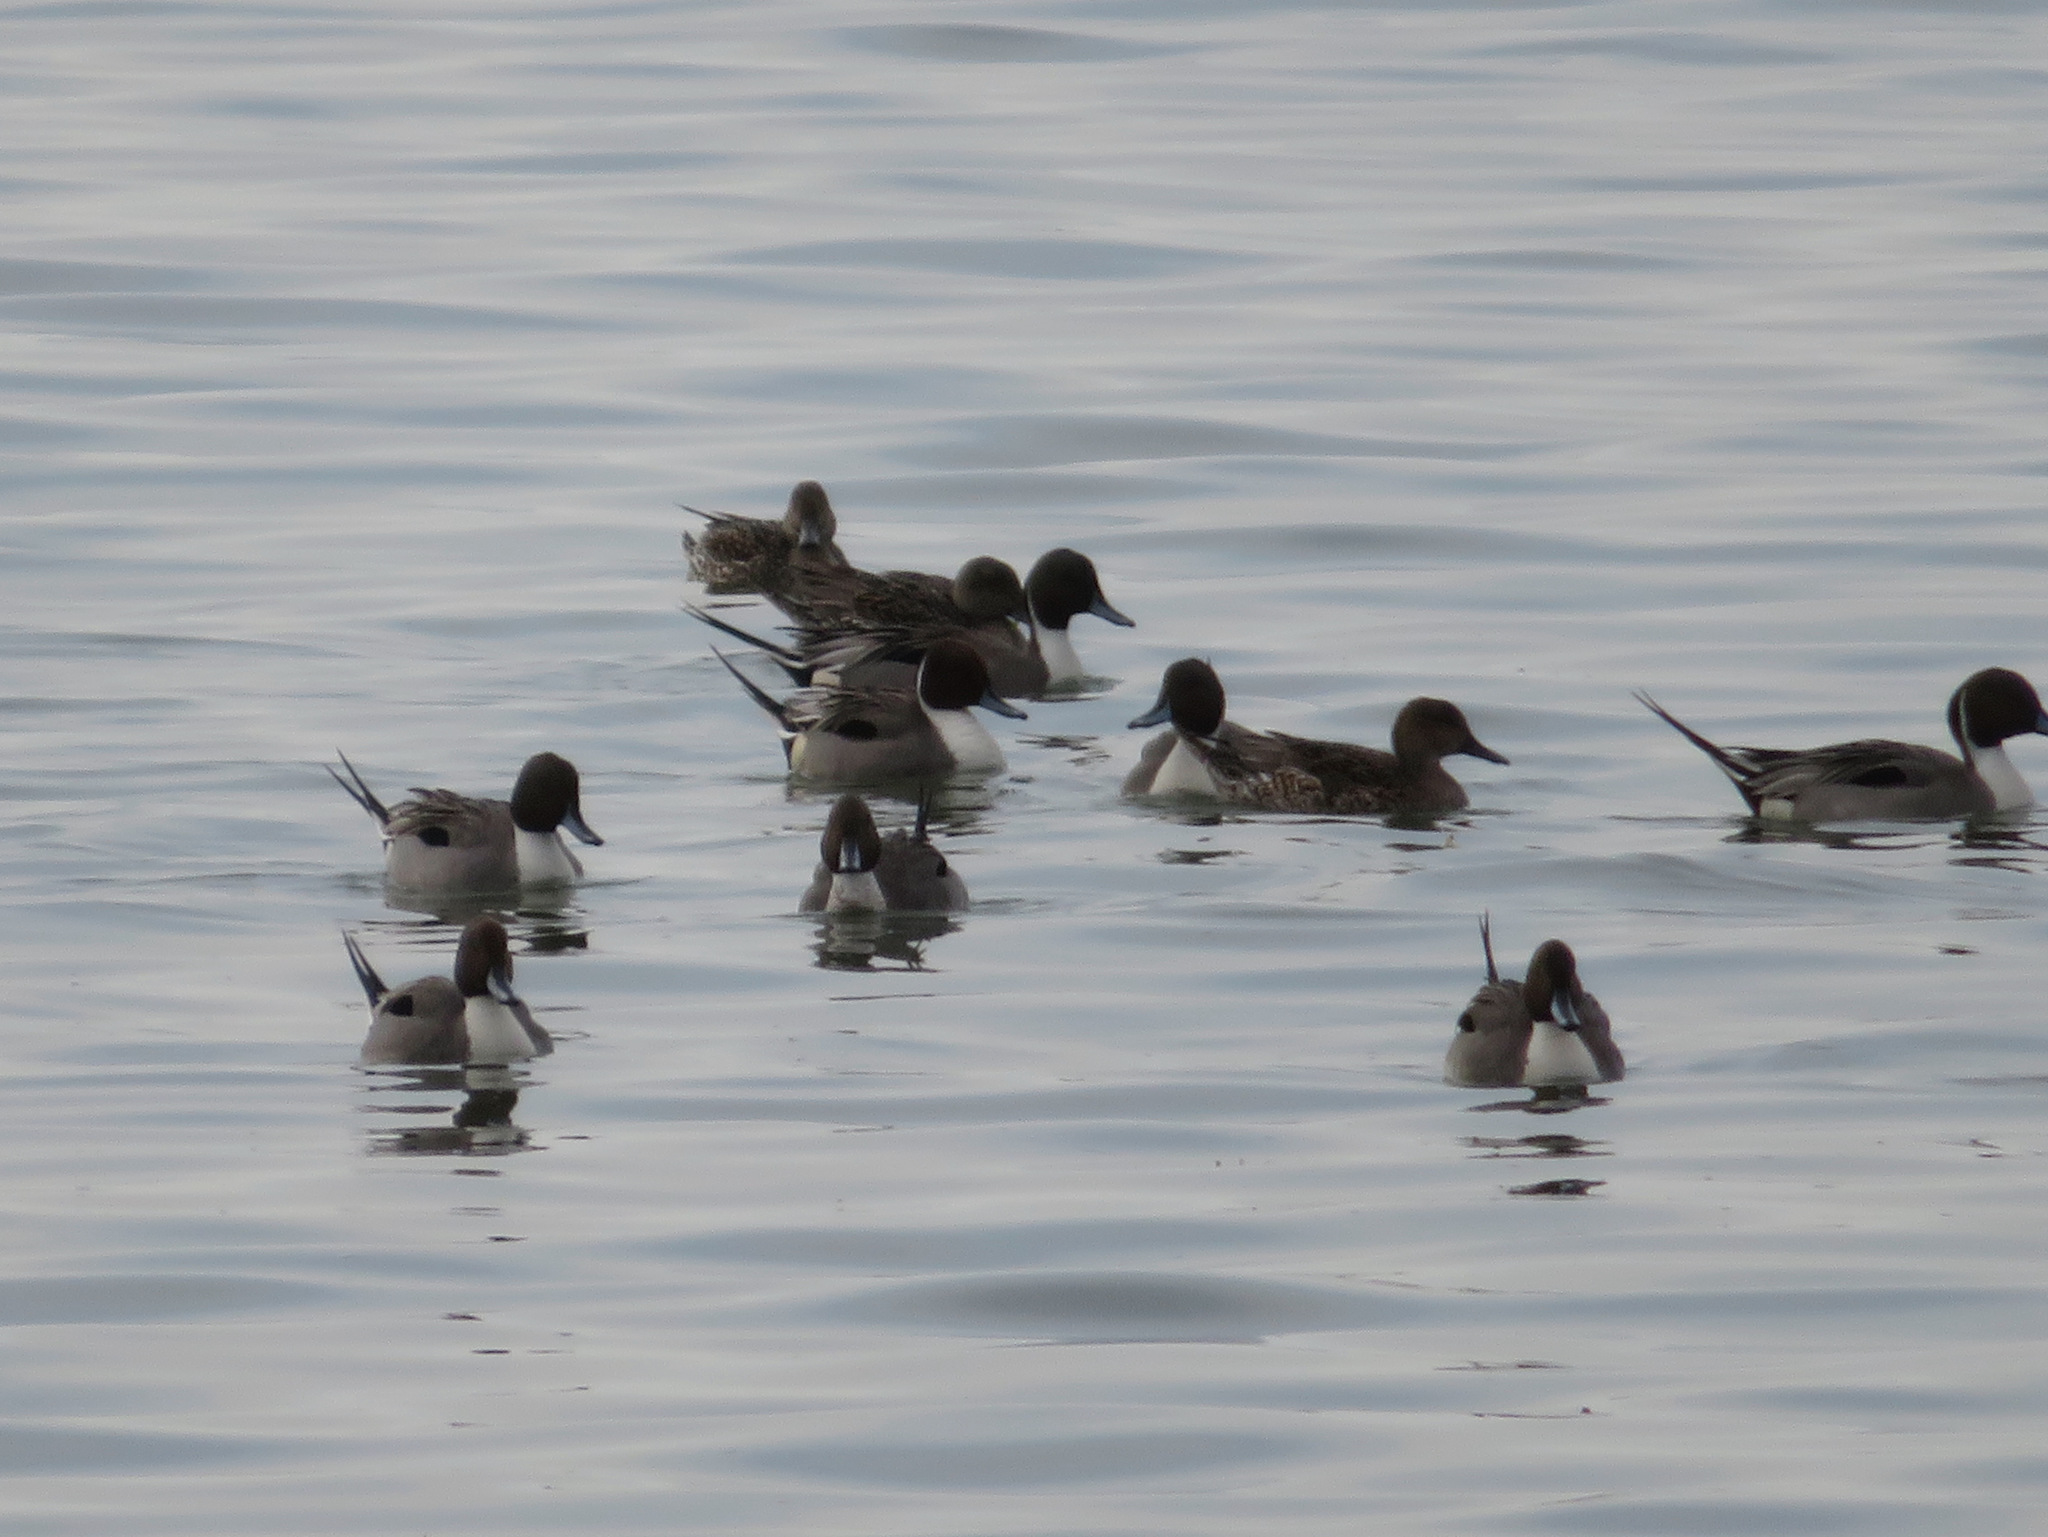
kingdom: Animalia
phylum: Chordata
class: Aves
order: Anseriformes
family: Anatidae
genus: Anas
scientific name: Anas acuta
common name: Northern pintail
